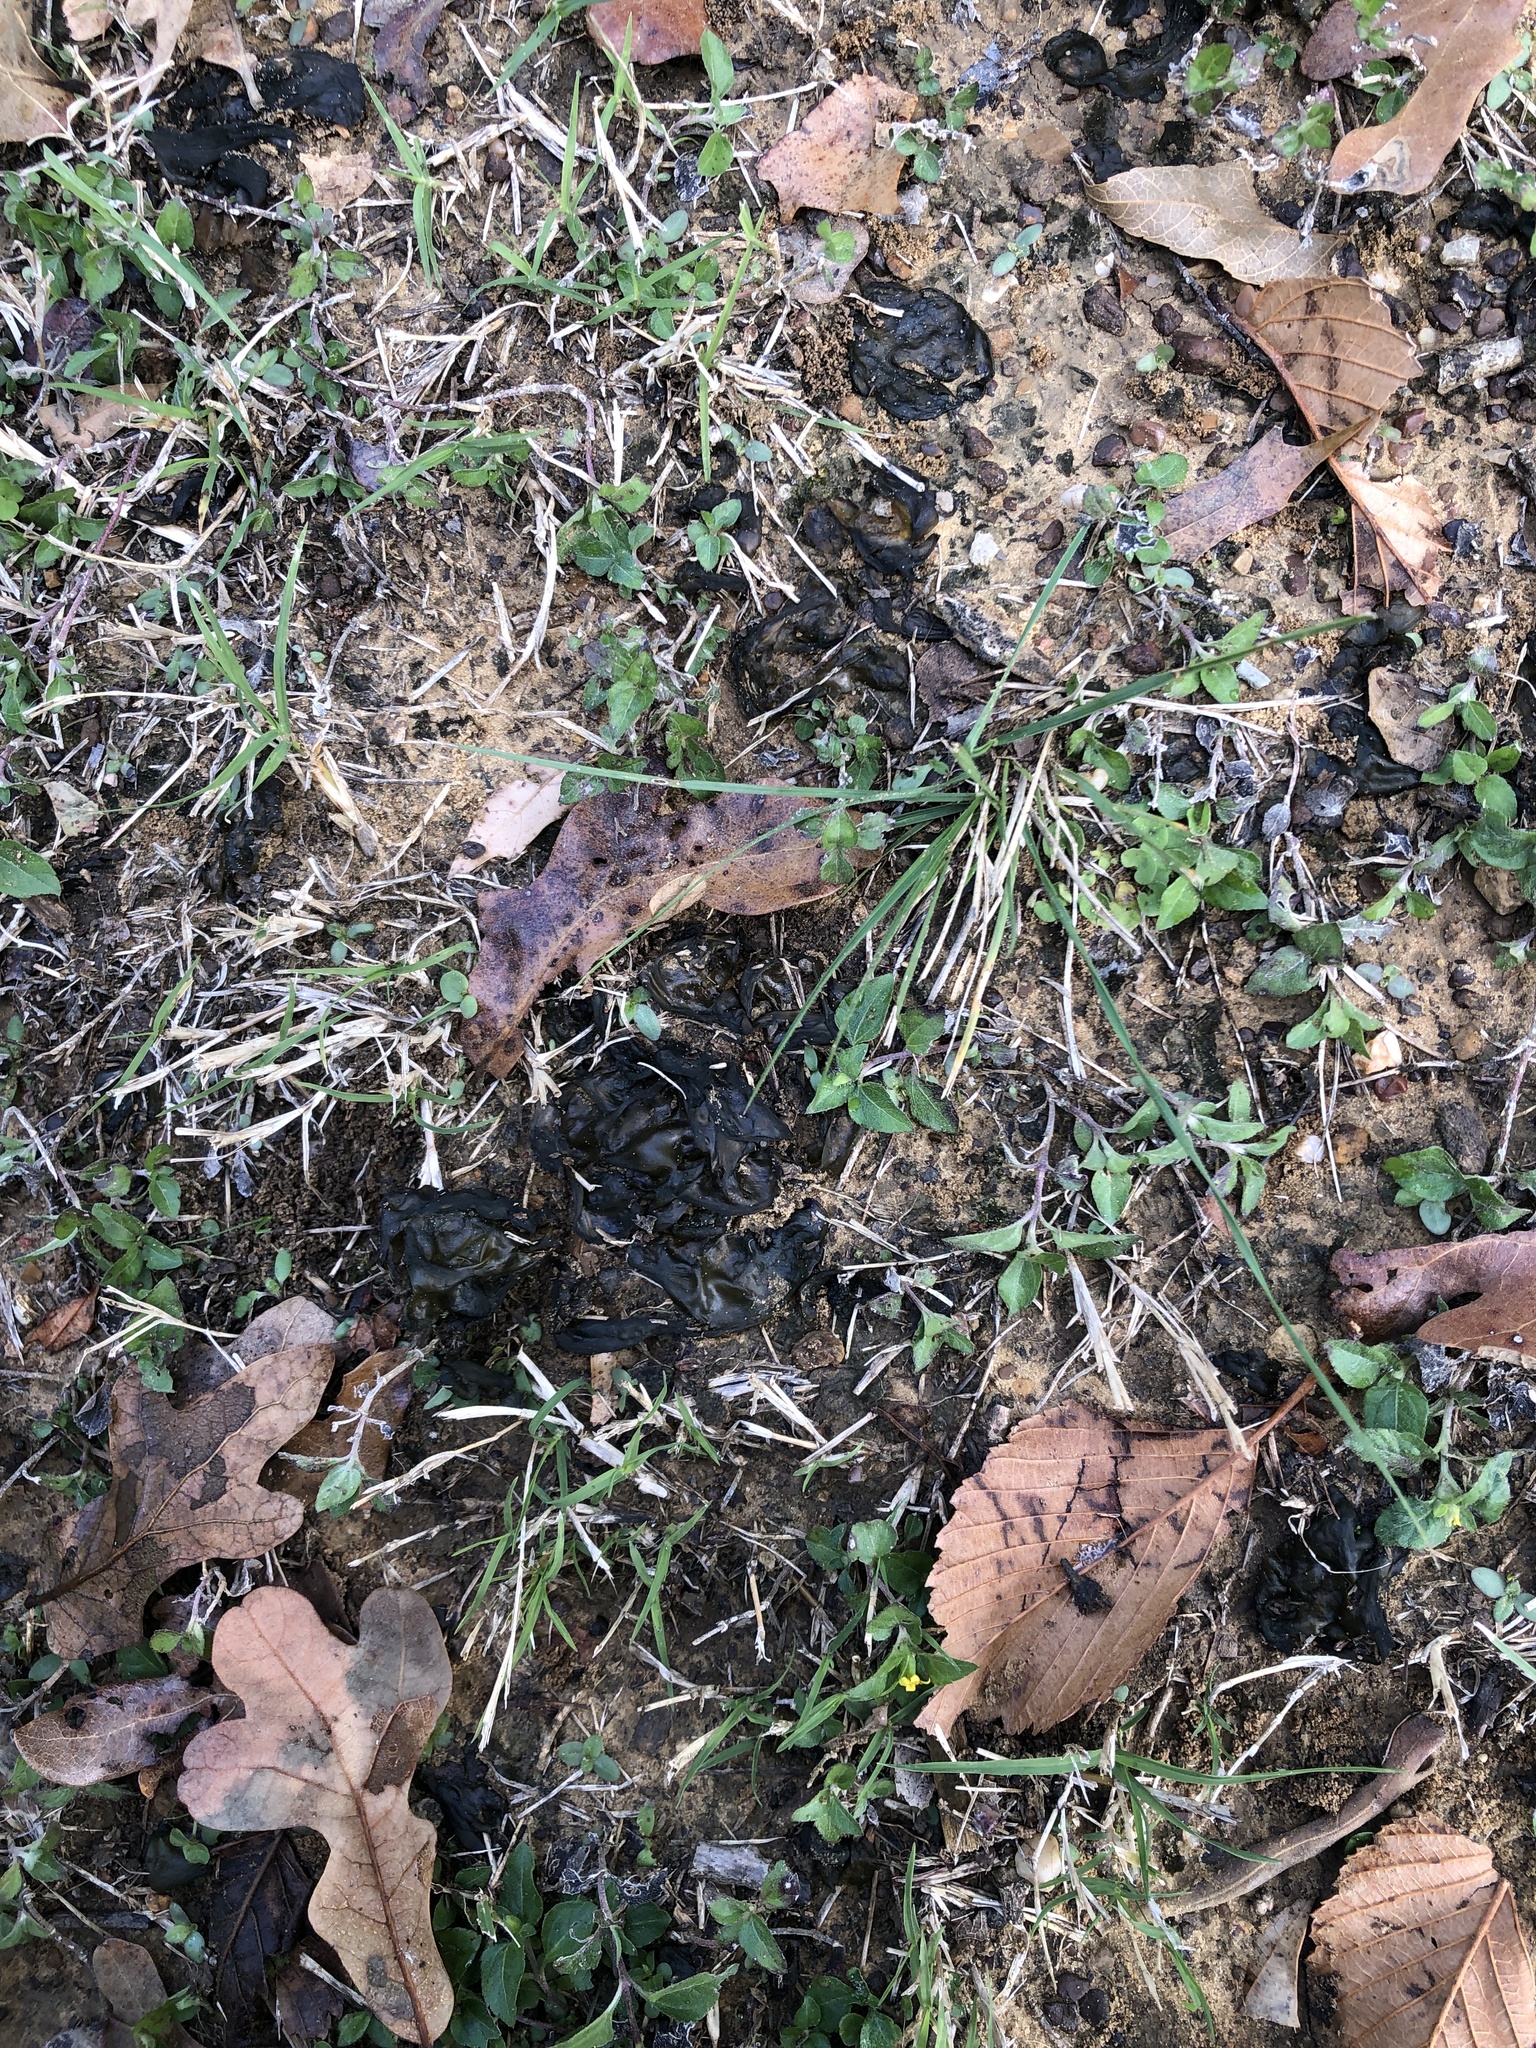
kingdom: Bacteria
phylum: Cyanobacteria
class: Cyanobacteriia
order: Cyanobacteriales
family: Nostocaceae
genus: Nostoc
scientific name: Nostoc commune
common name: Star jelly
